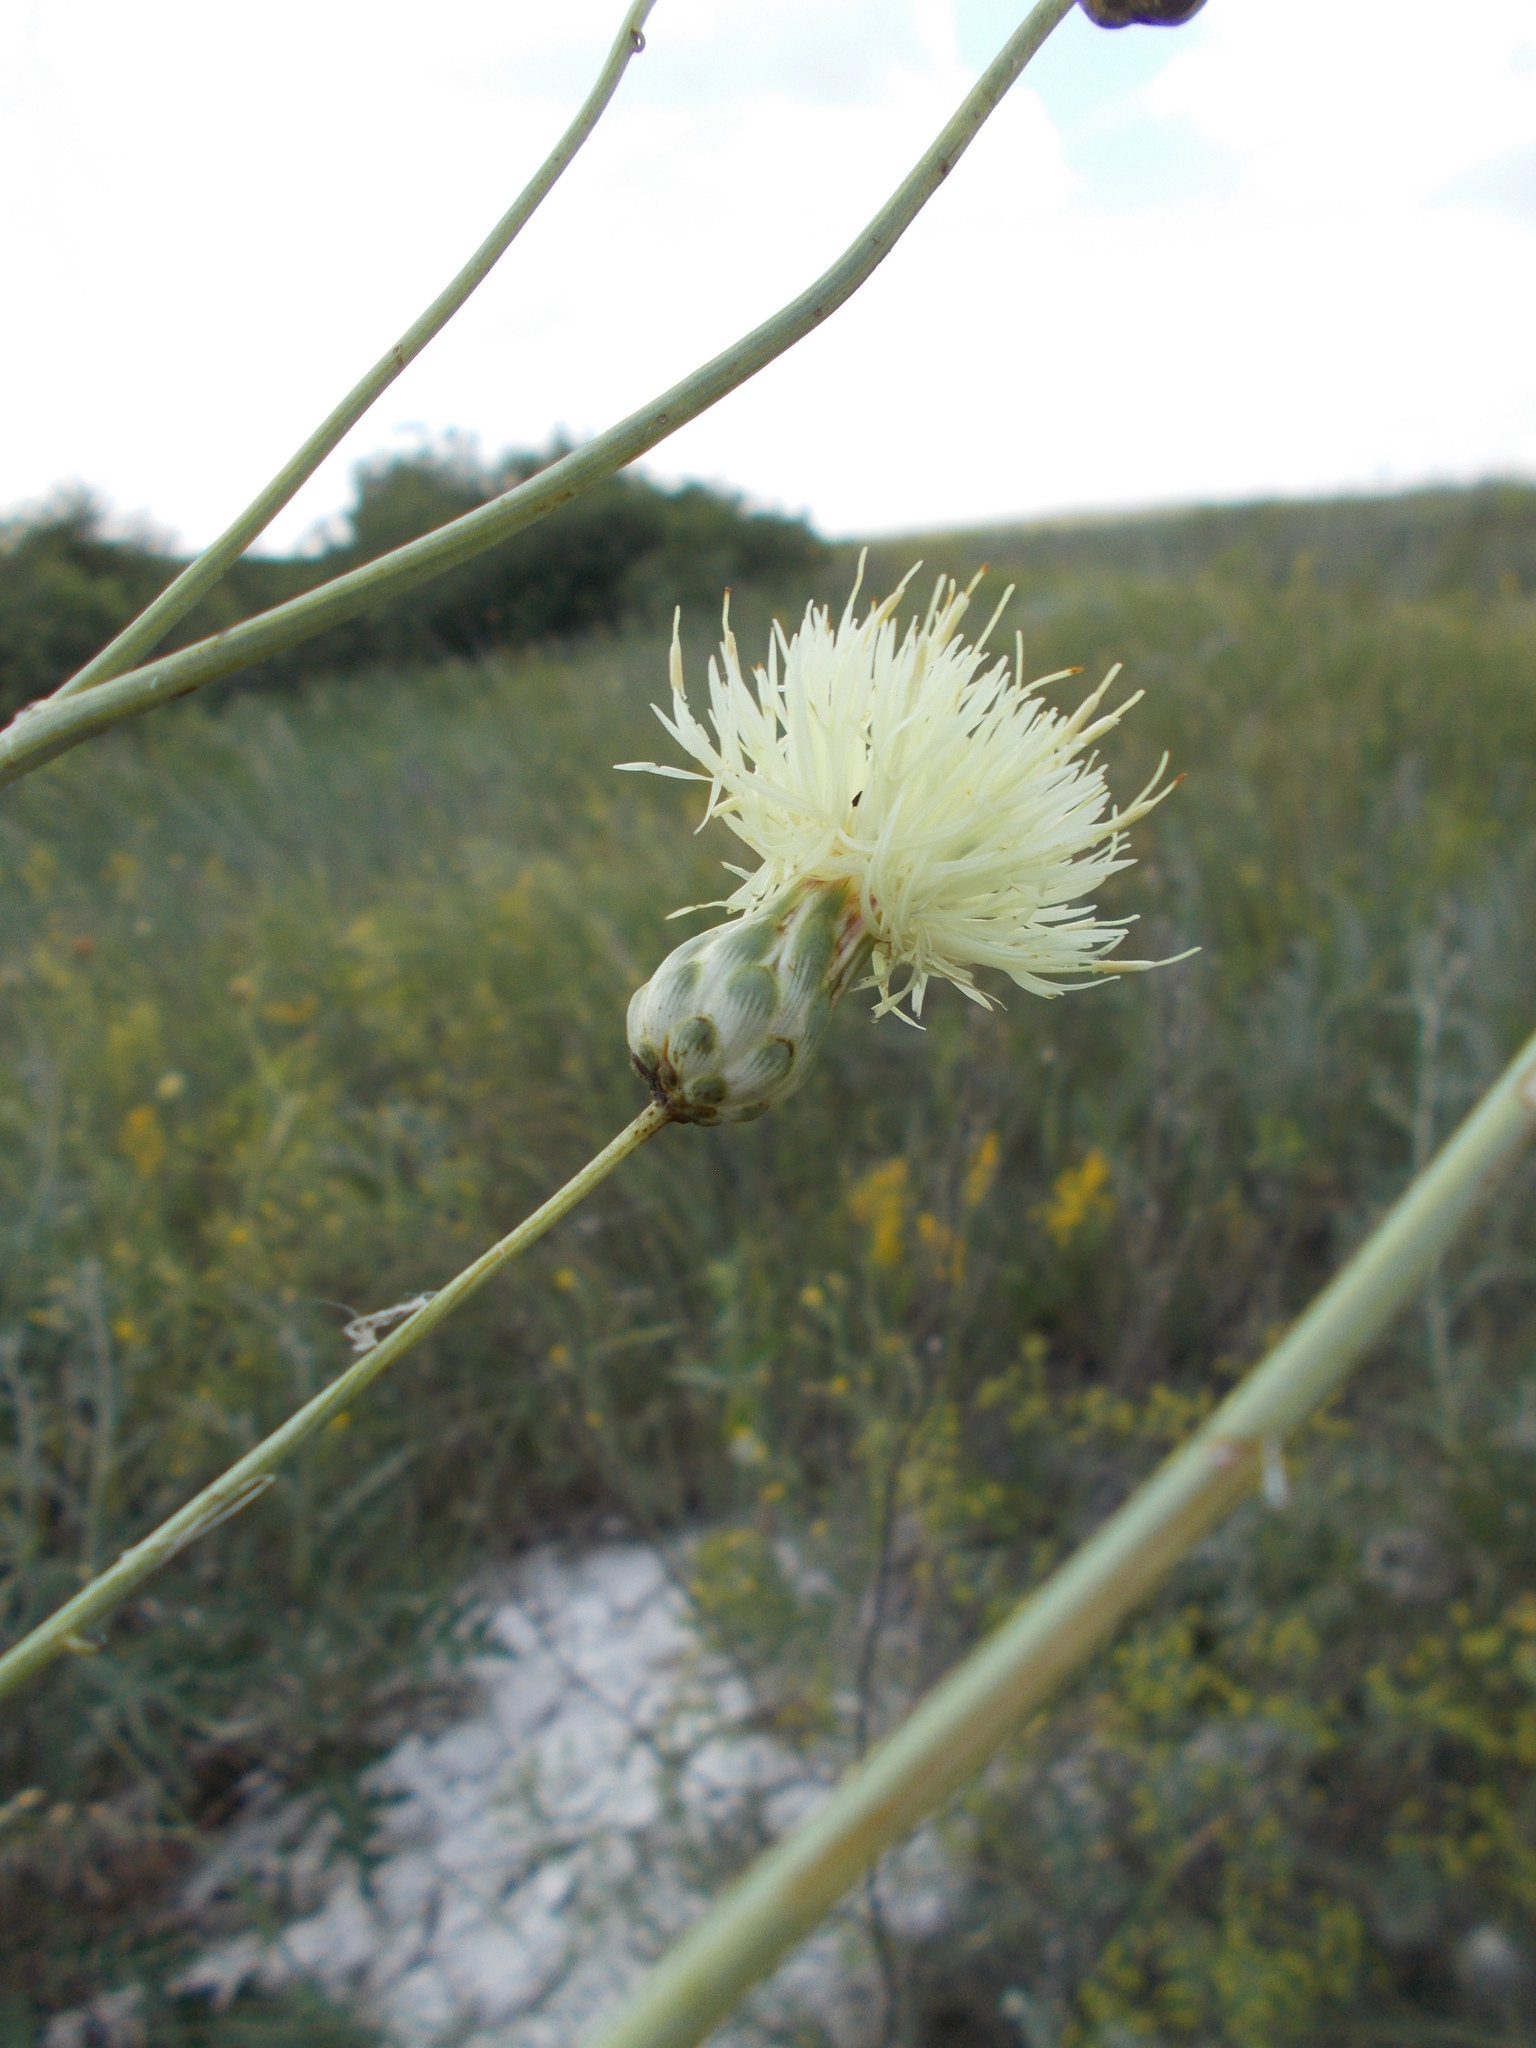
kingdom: Plantae
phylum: Tracheophyta
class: Magnoliopsida
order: Asterales
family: Asteraceae
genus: Rhaponticoides
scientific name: Rhaponticoides ruthenica
